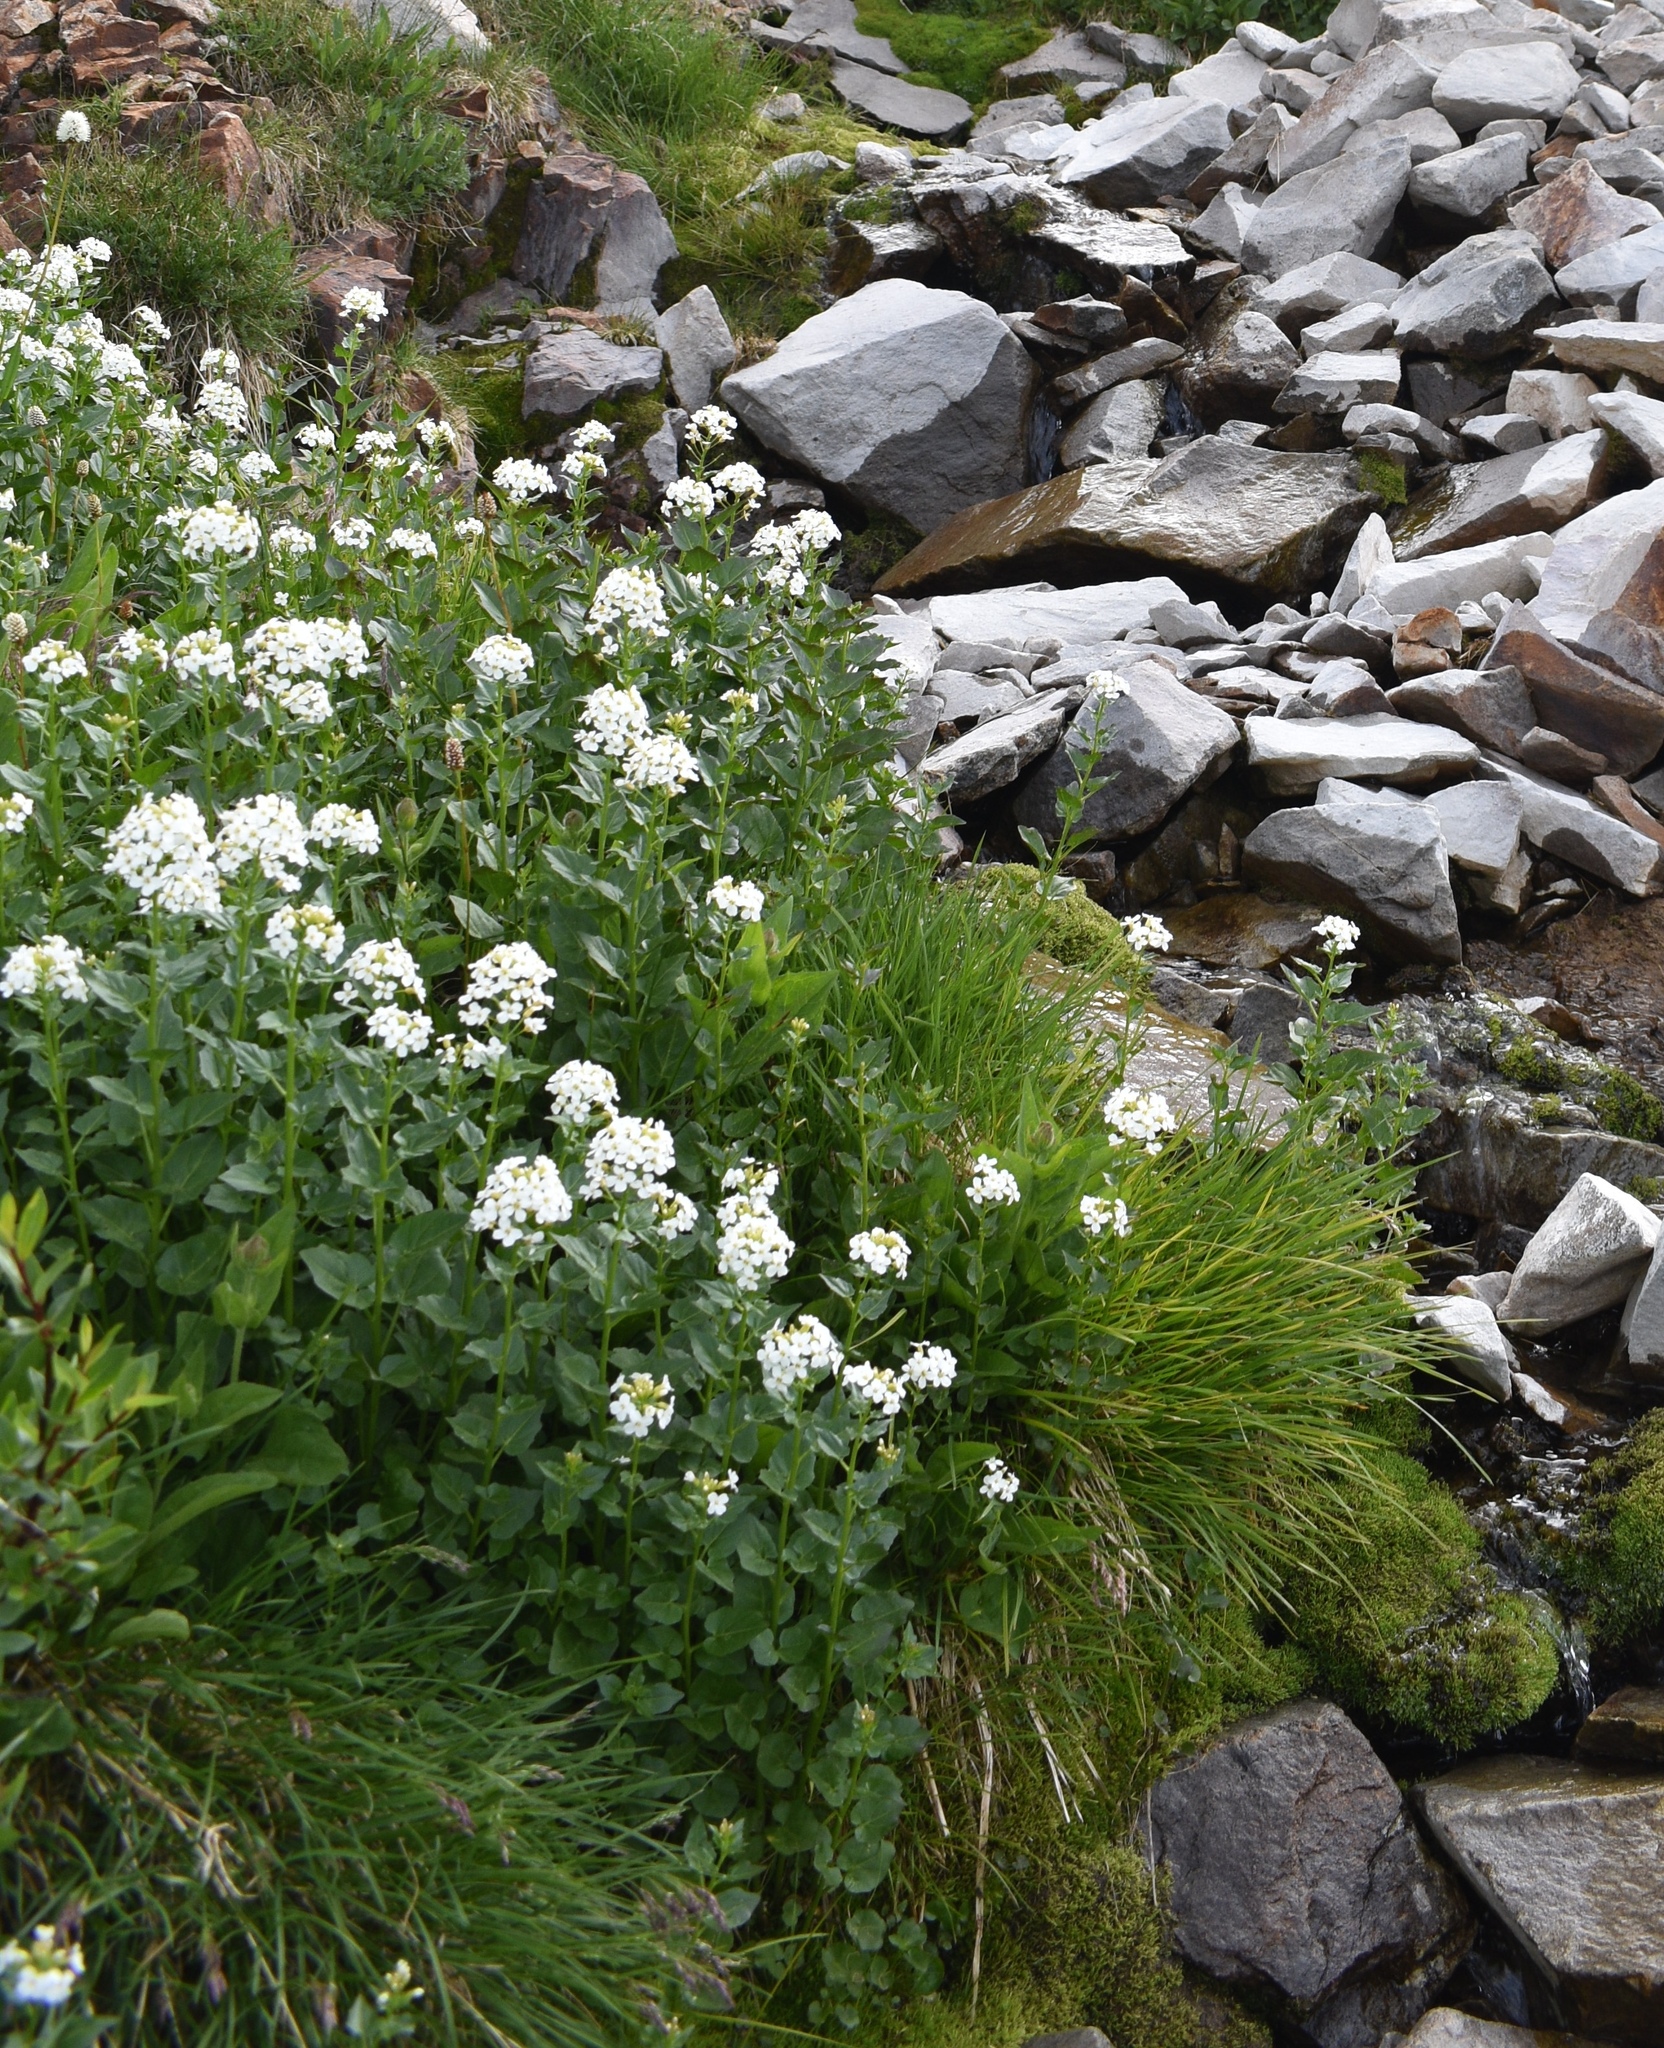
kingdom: Plantae
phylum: Tracheophyta
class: Magnoliopsida
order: Brassicales
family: Brassicaceae
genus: Cardamine
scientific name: Cardamine cordifolia
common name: Heart-leaf bittercress
